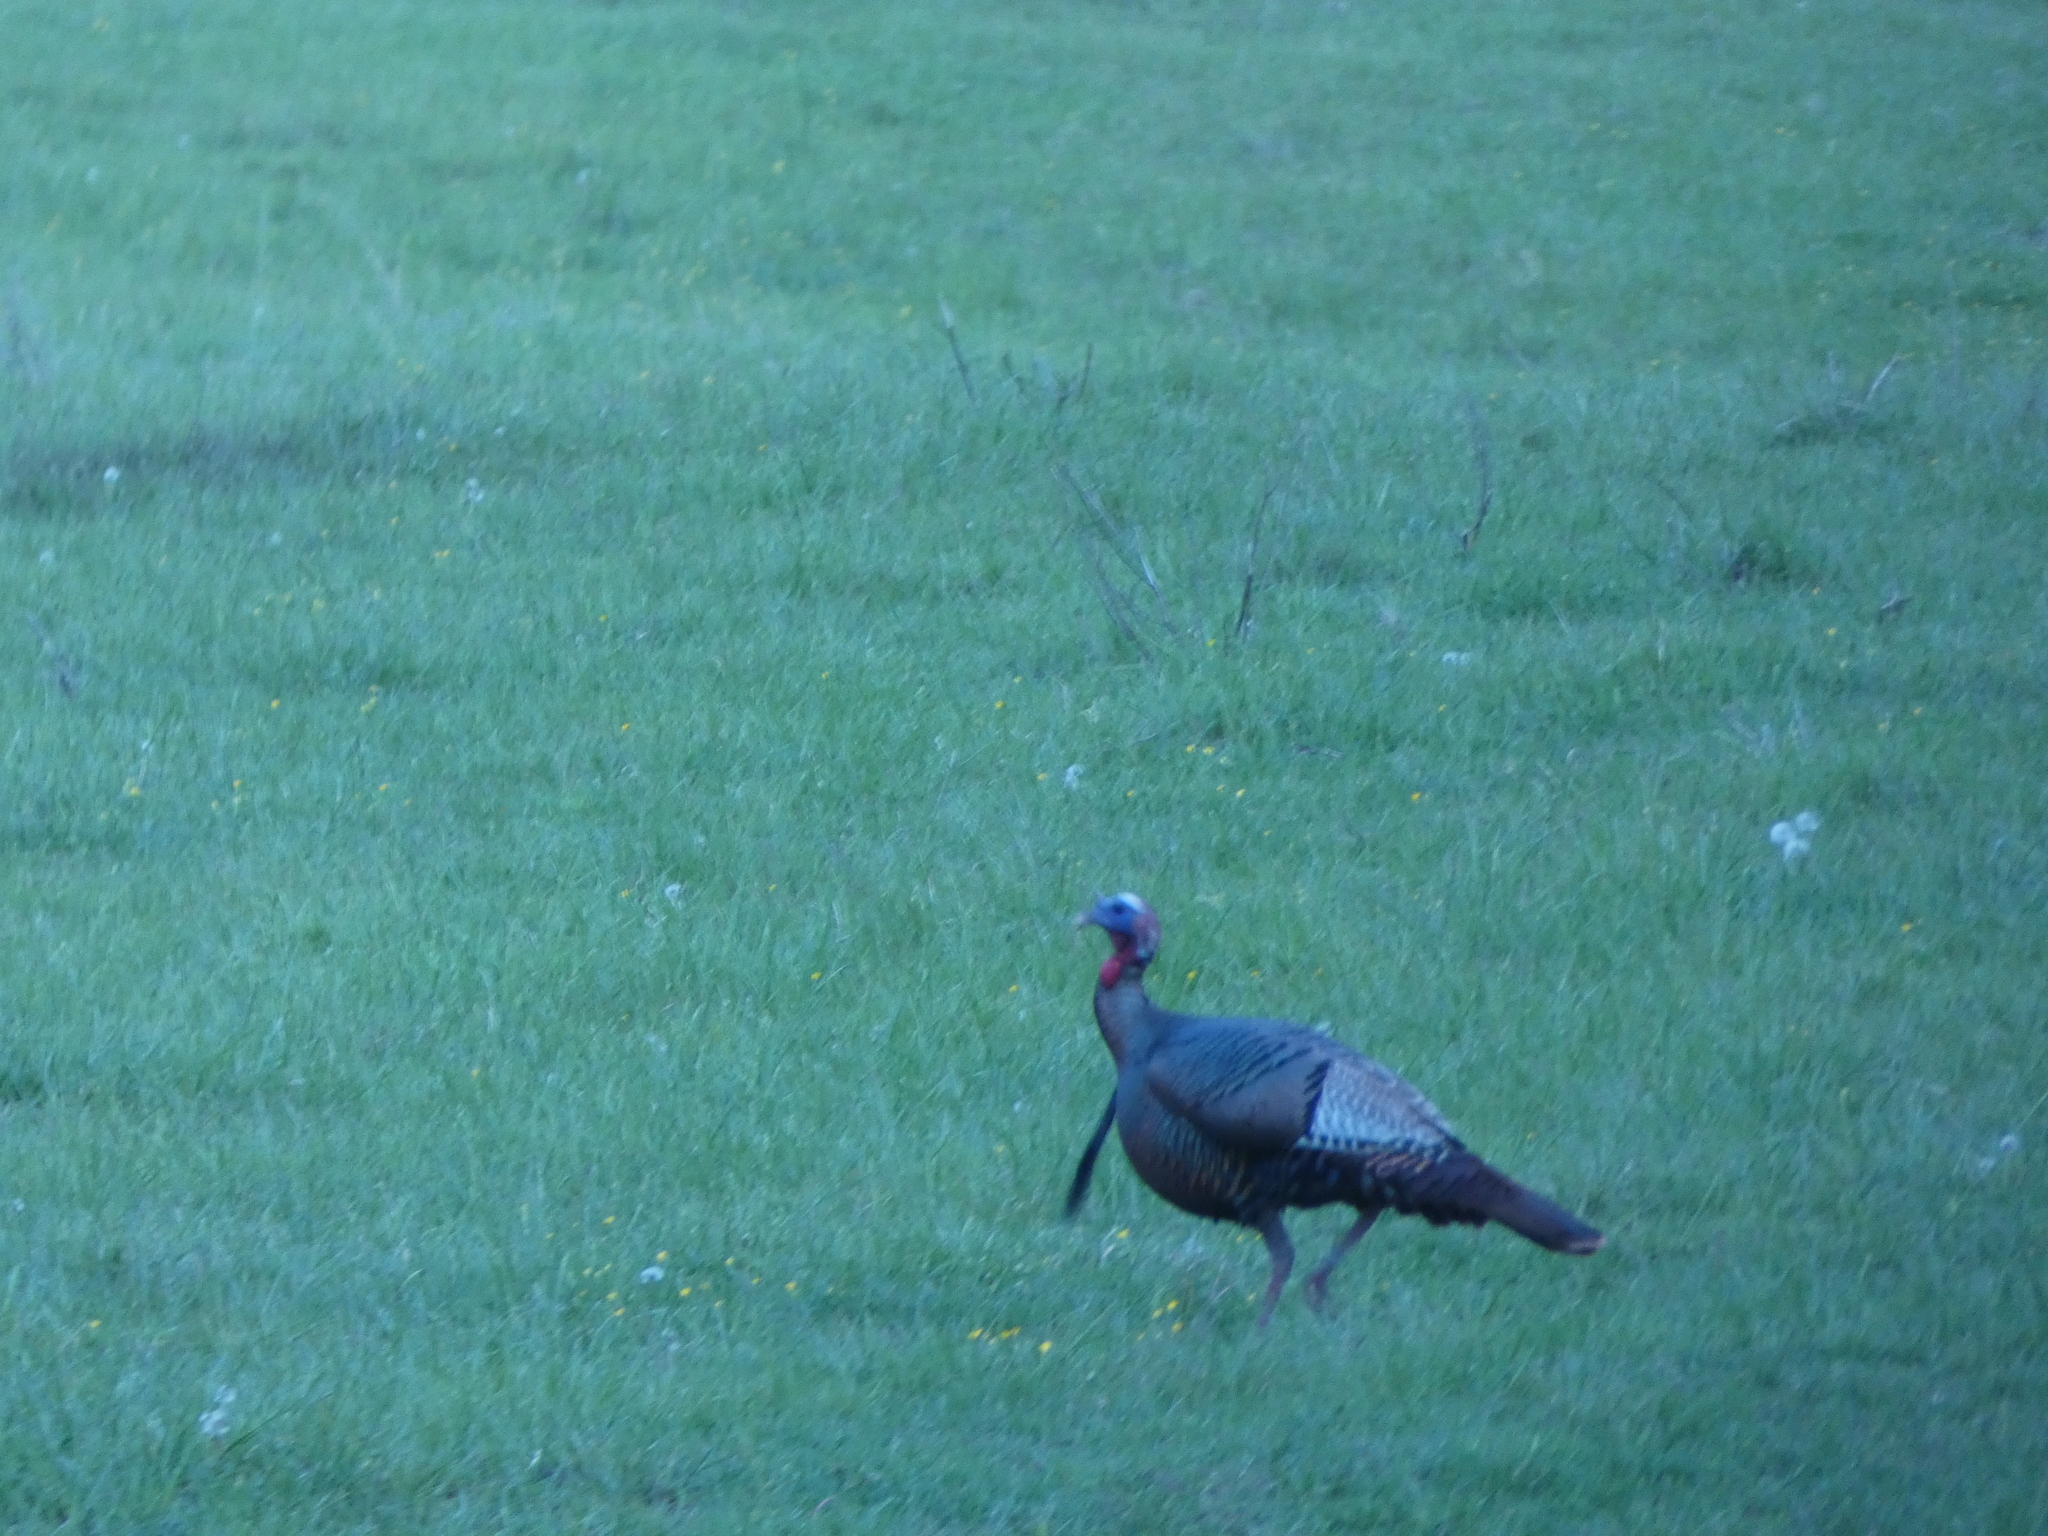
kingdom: Animalia
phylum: Chordata
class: Aves
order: Galliformes
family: Phasianidae
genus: Meleagris
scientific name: Meleagris gallopavo
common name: Wild turkey
